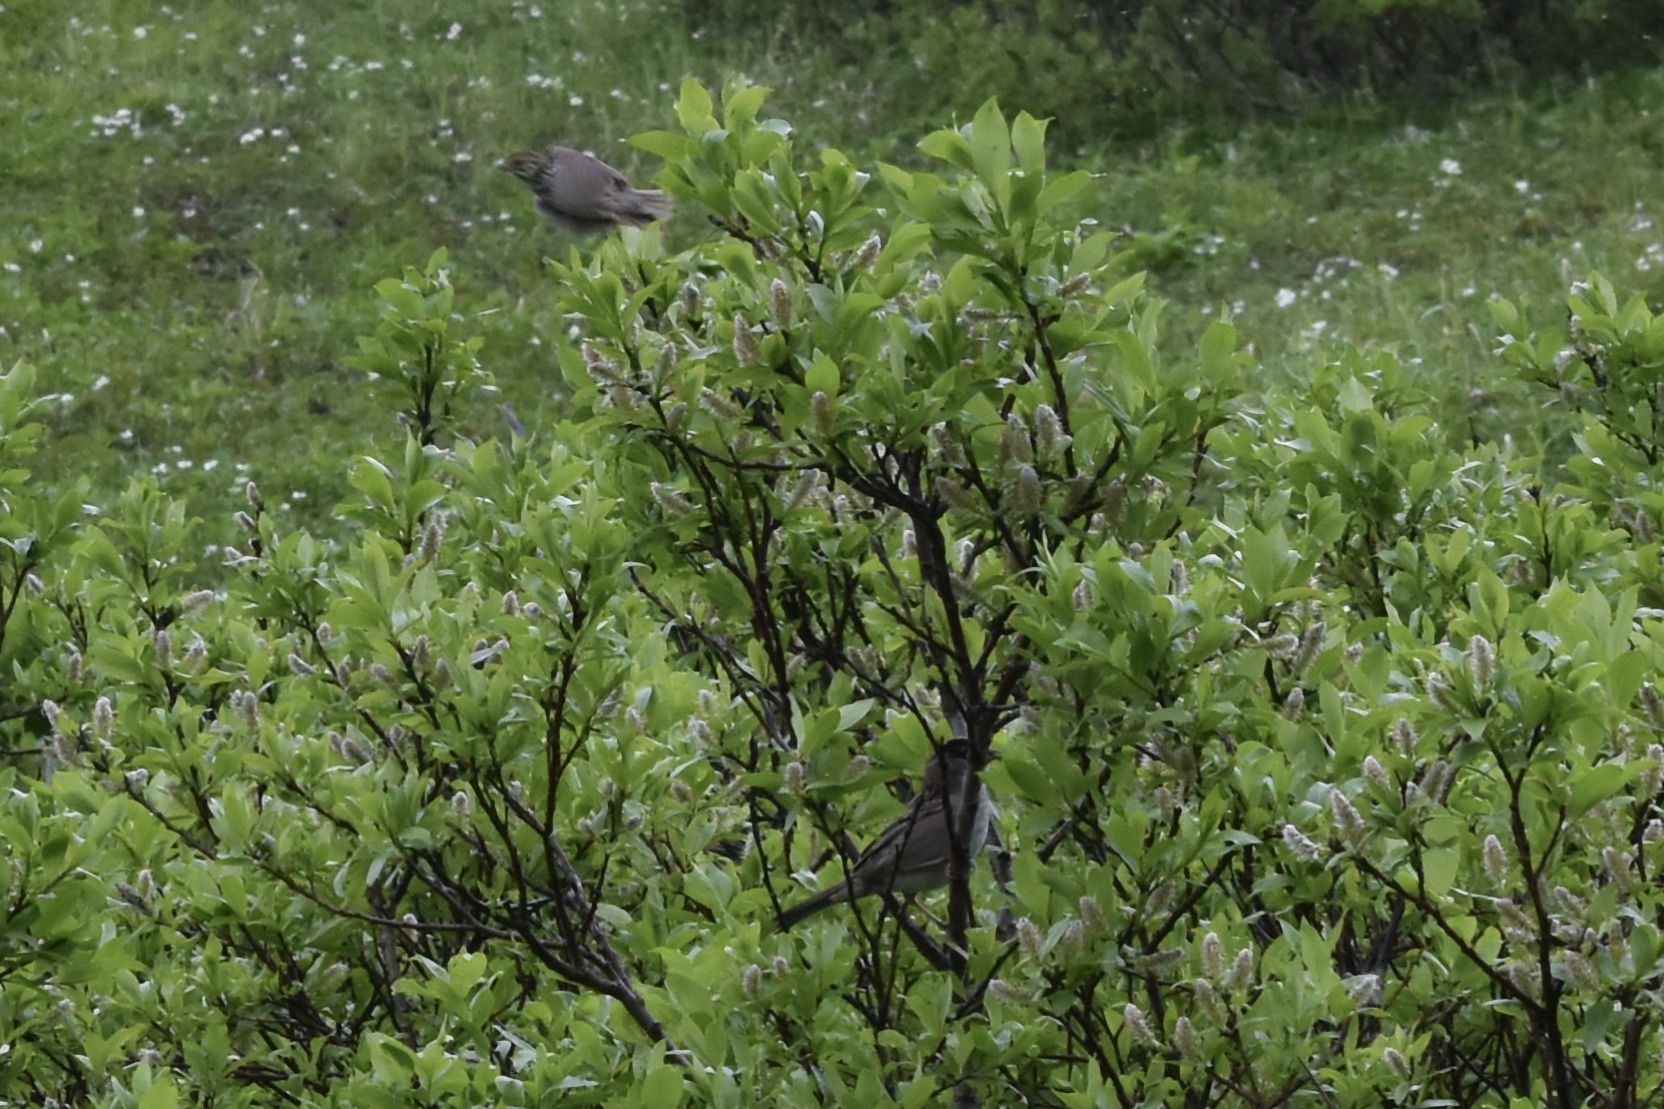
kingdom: Animalia
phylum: Chordata
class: Aves
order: Passeriformes
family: Passerellidae
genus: Zonotrichia
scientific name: Zonotrichia atricapilla
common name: Golden-crowned sparrow
